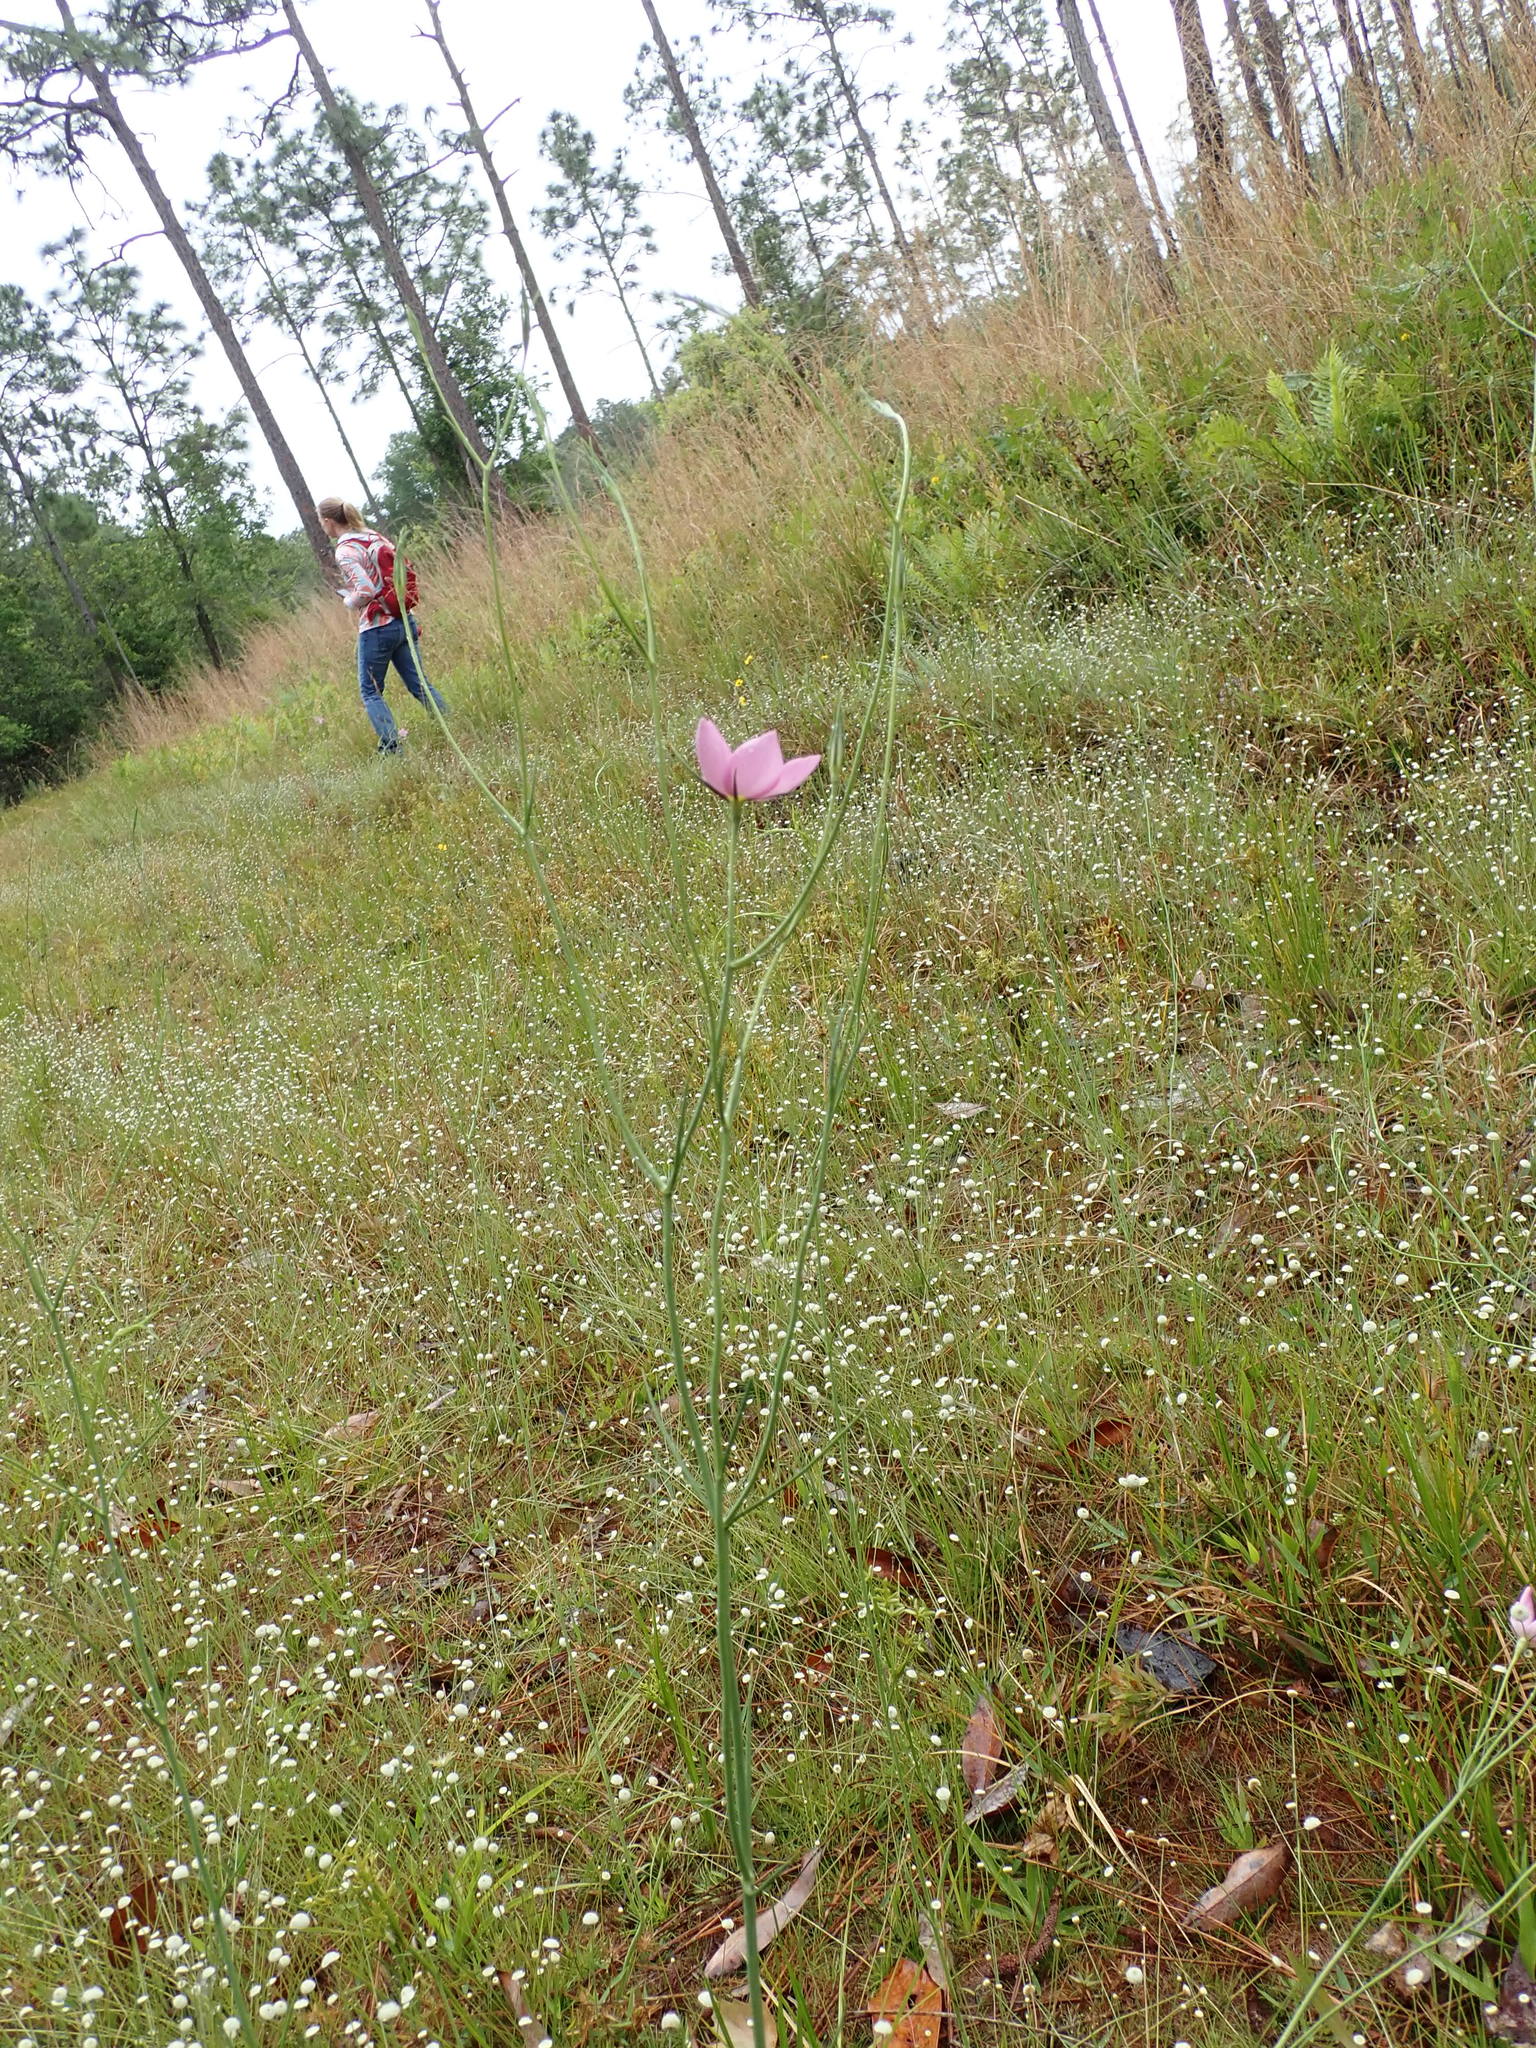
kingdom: Plantae
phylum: Tracheophyta
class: Magnoliopsida
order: Gentianales
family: Gentianaceae
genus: Sabatia
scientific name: Sabatia grandiflora
